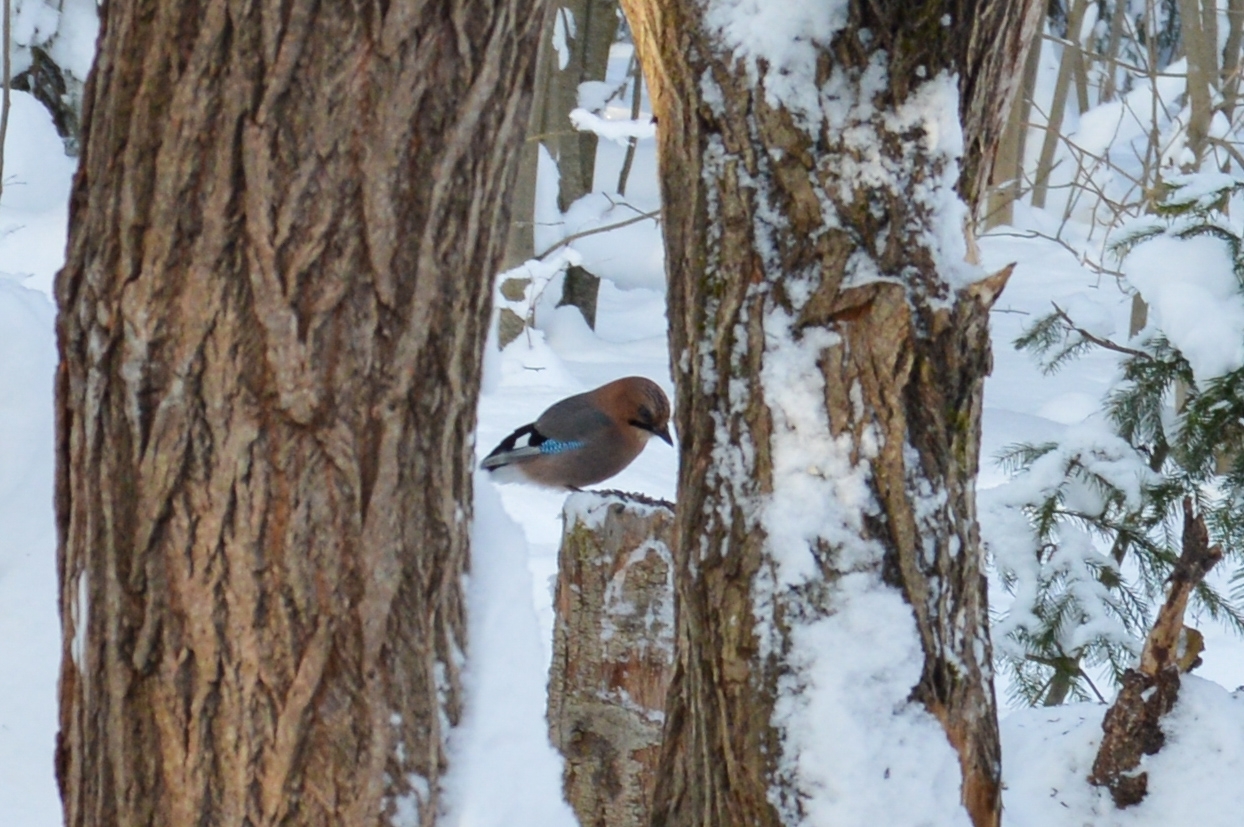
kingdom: Animalia
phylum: Chordata
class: Aves
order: Passeriformes
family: Corvidae
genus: Garrulus
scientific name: Garrulus glandarius
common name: Eurasian jay
